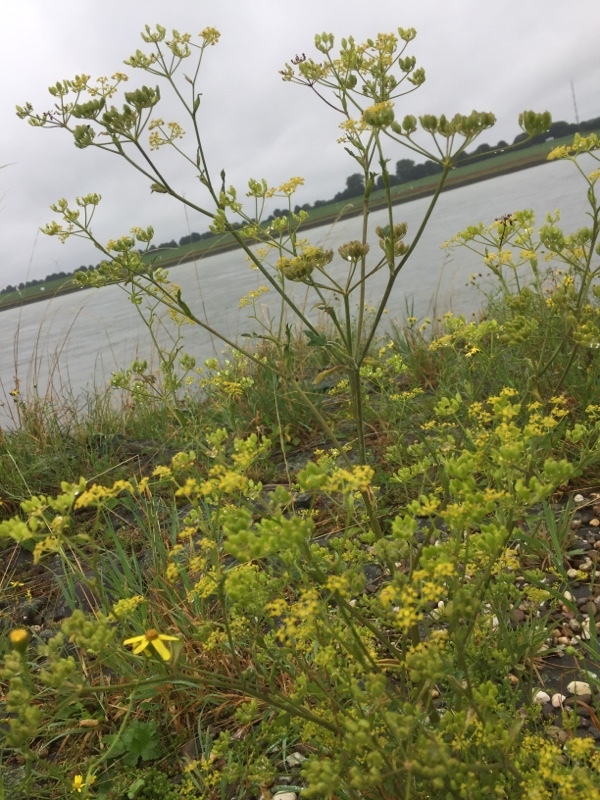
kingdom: Plantae
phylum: Tracheophyta
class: Magnoliopsida
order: Apiales
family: Apiaceae
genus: Pastinaca
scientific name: Pastinaca sativa
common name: Wild parsnip
